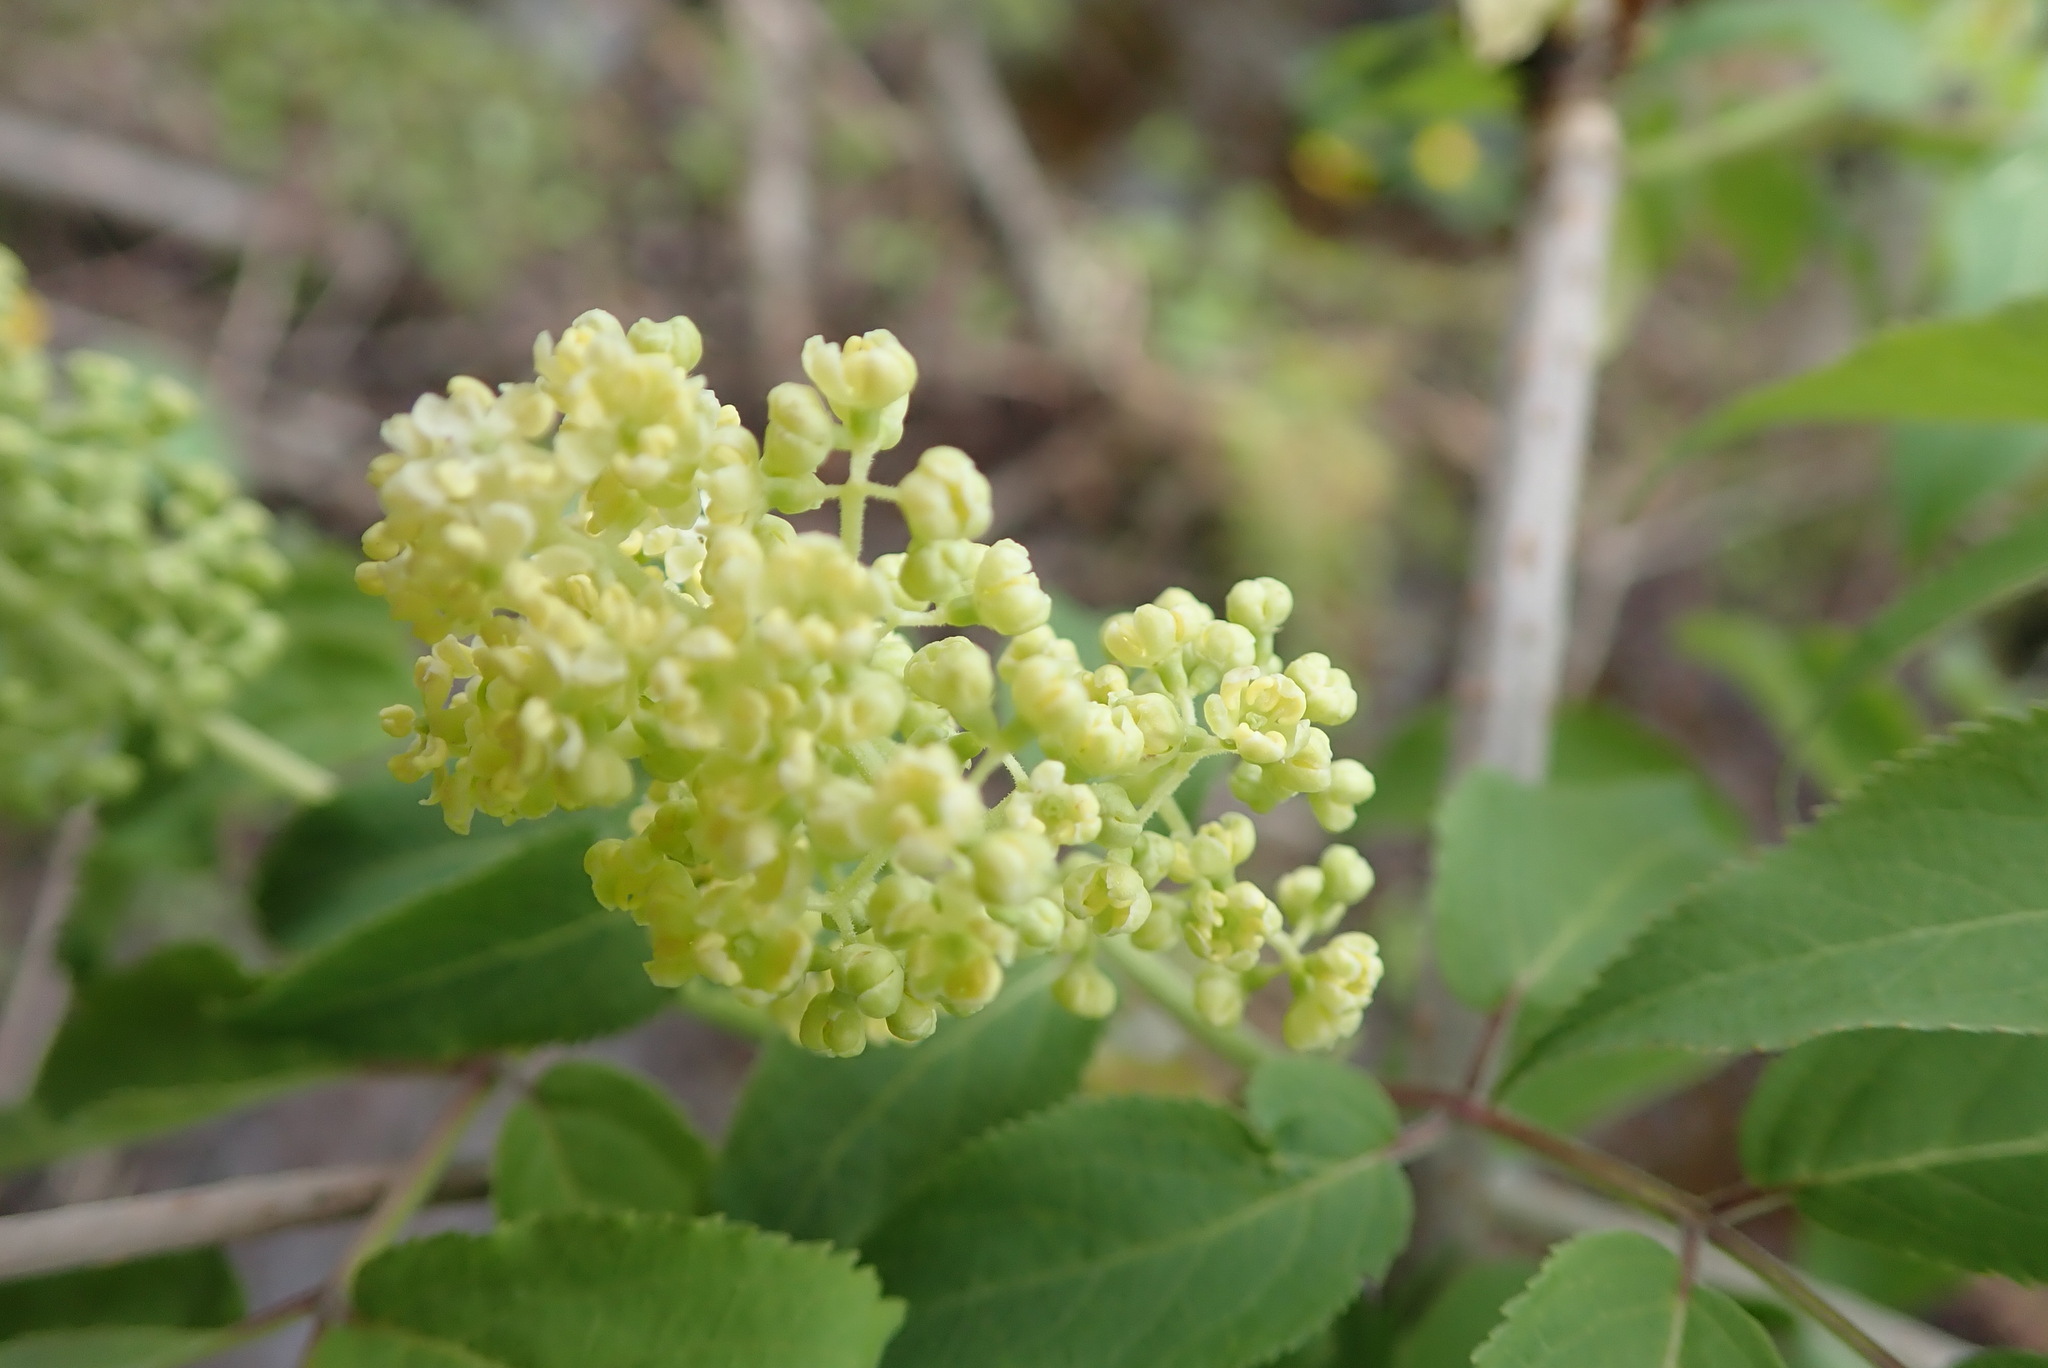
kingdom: Plantae
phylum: Tracheophyta
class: Magnoliopsida
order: Dipsacales
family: Viburnaceae
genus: Sambucus
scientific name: Sambucus racemosa
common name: Red-berried elder
